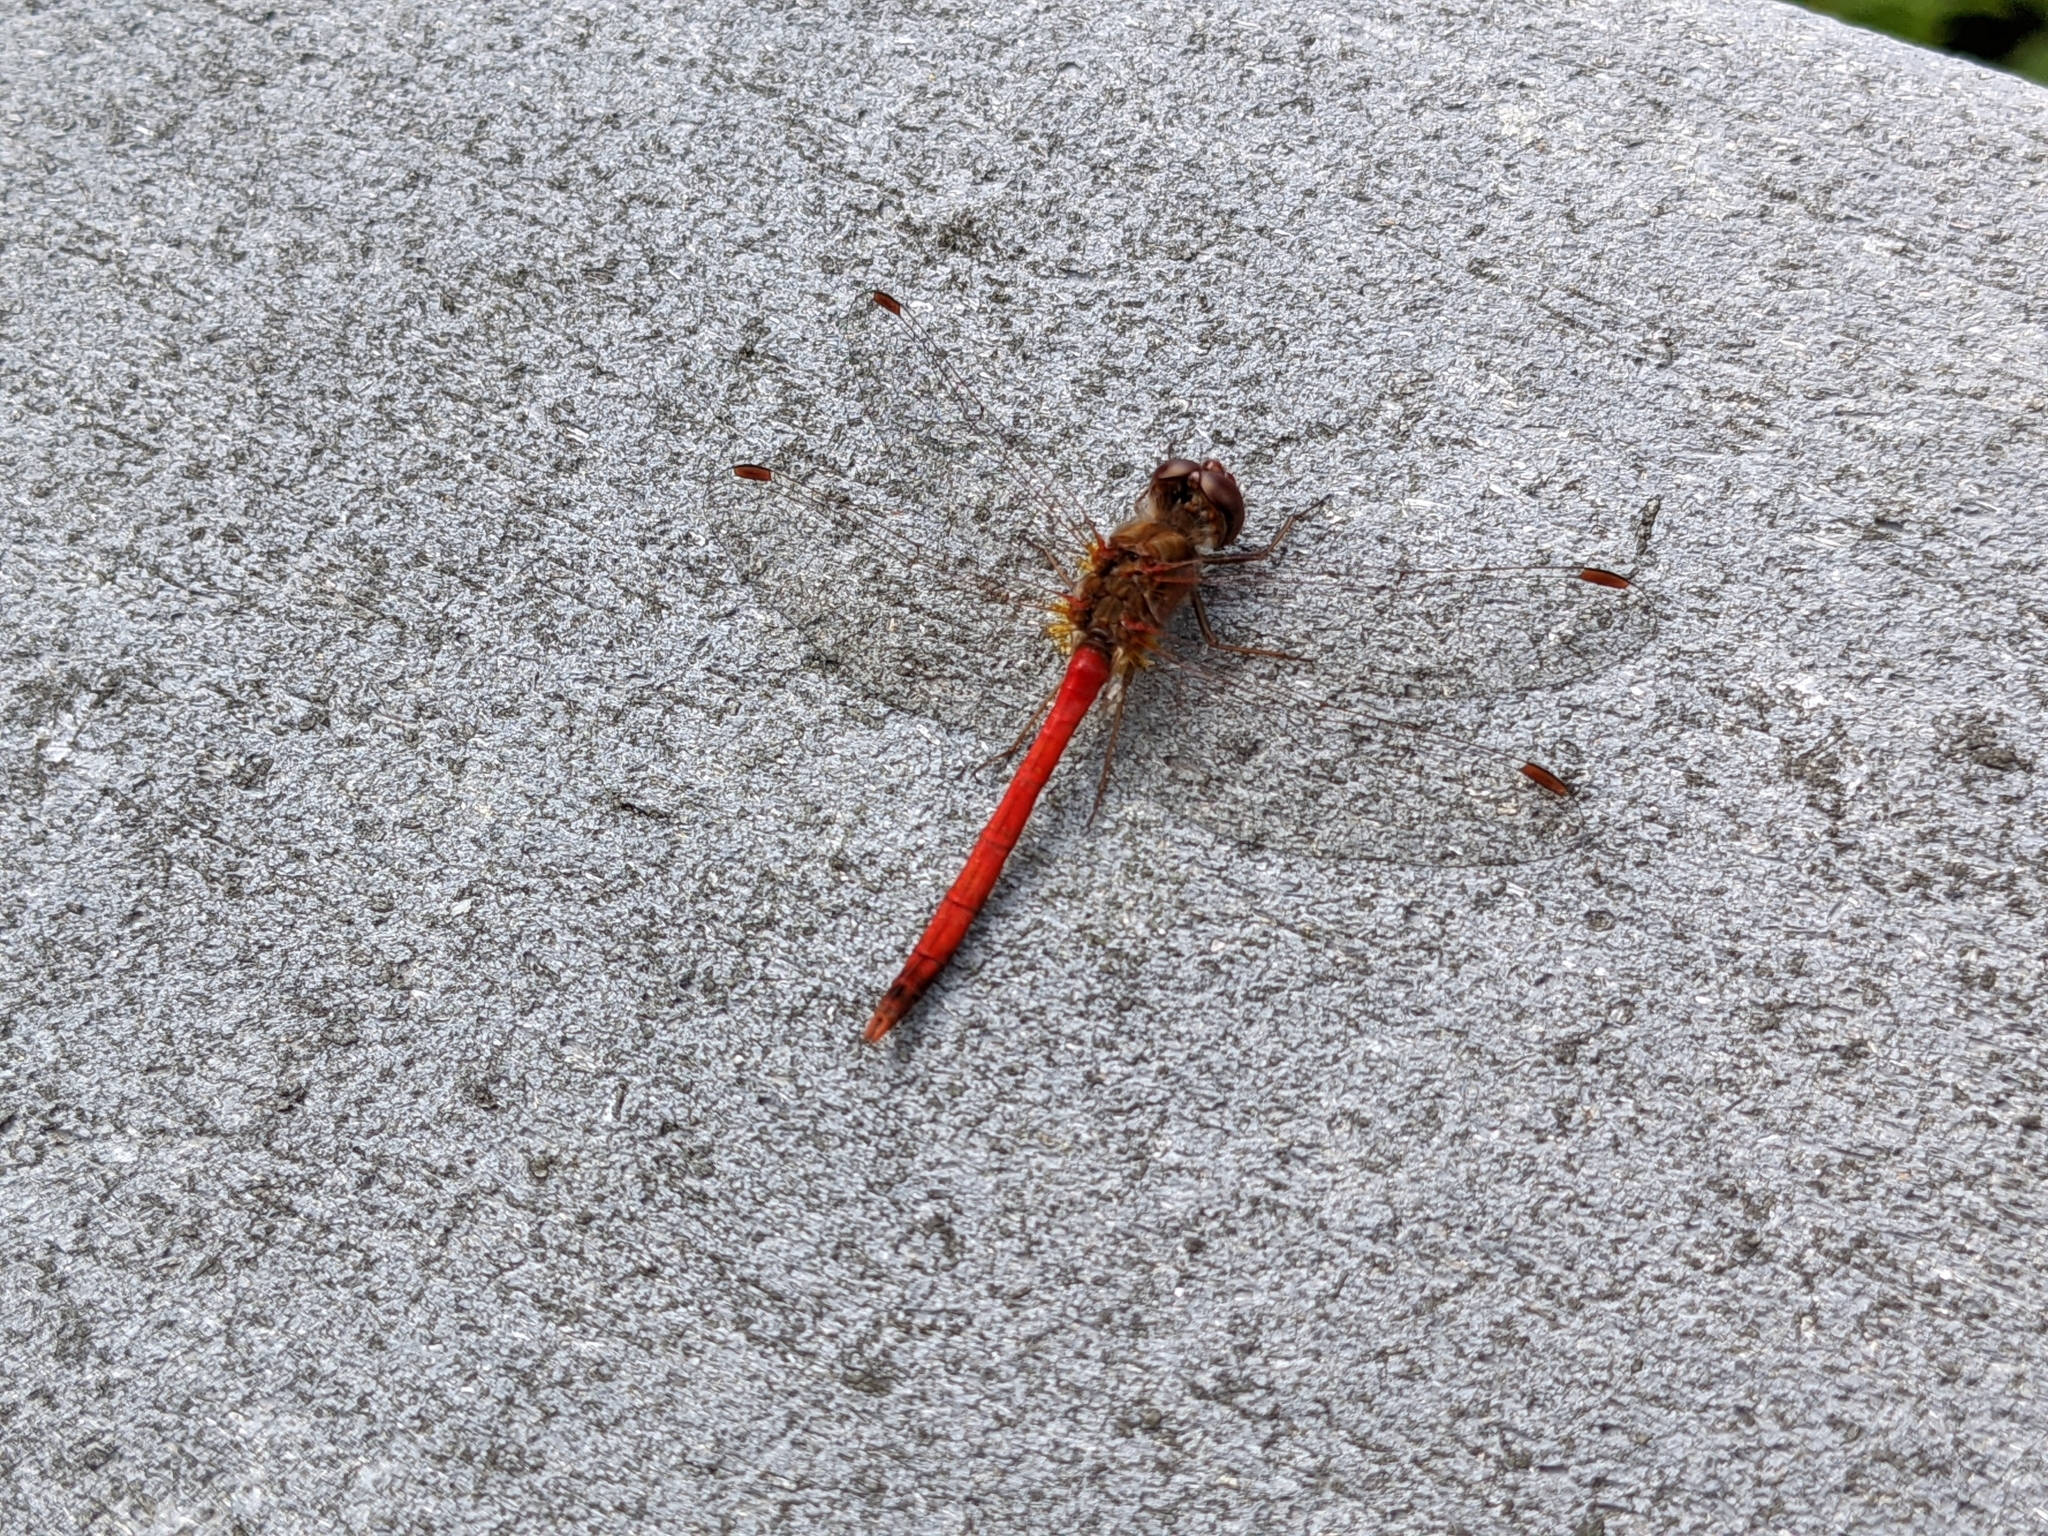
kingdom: Animalia
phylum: Arthropoda
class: Insecta
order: Odonata
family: Libellulidae
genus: Sympetrum
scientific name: Sympetrum vicinum
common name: Autumn meadowhawk
